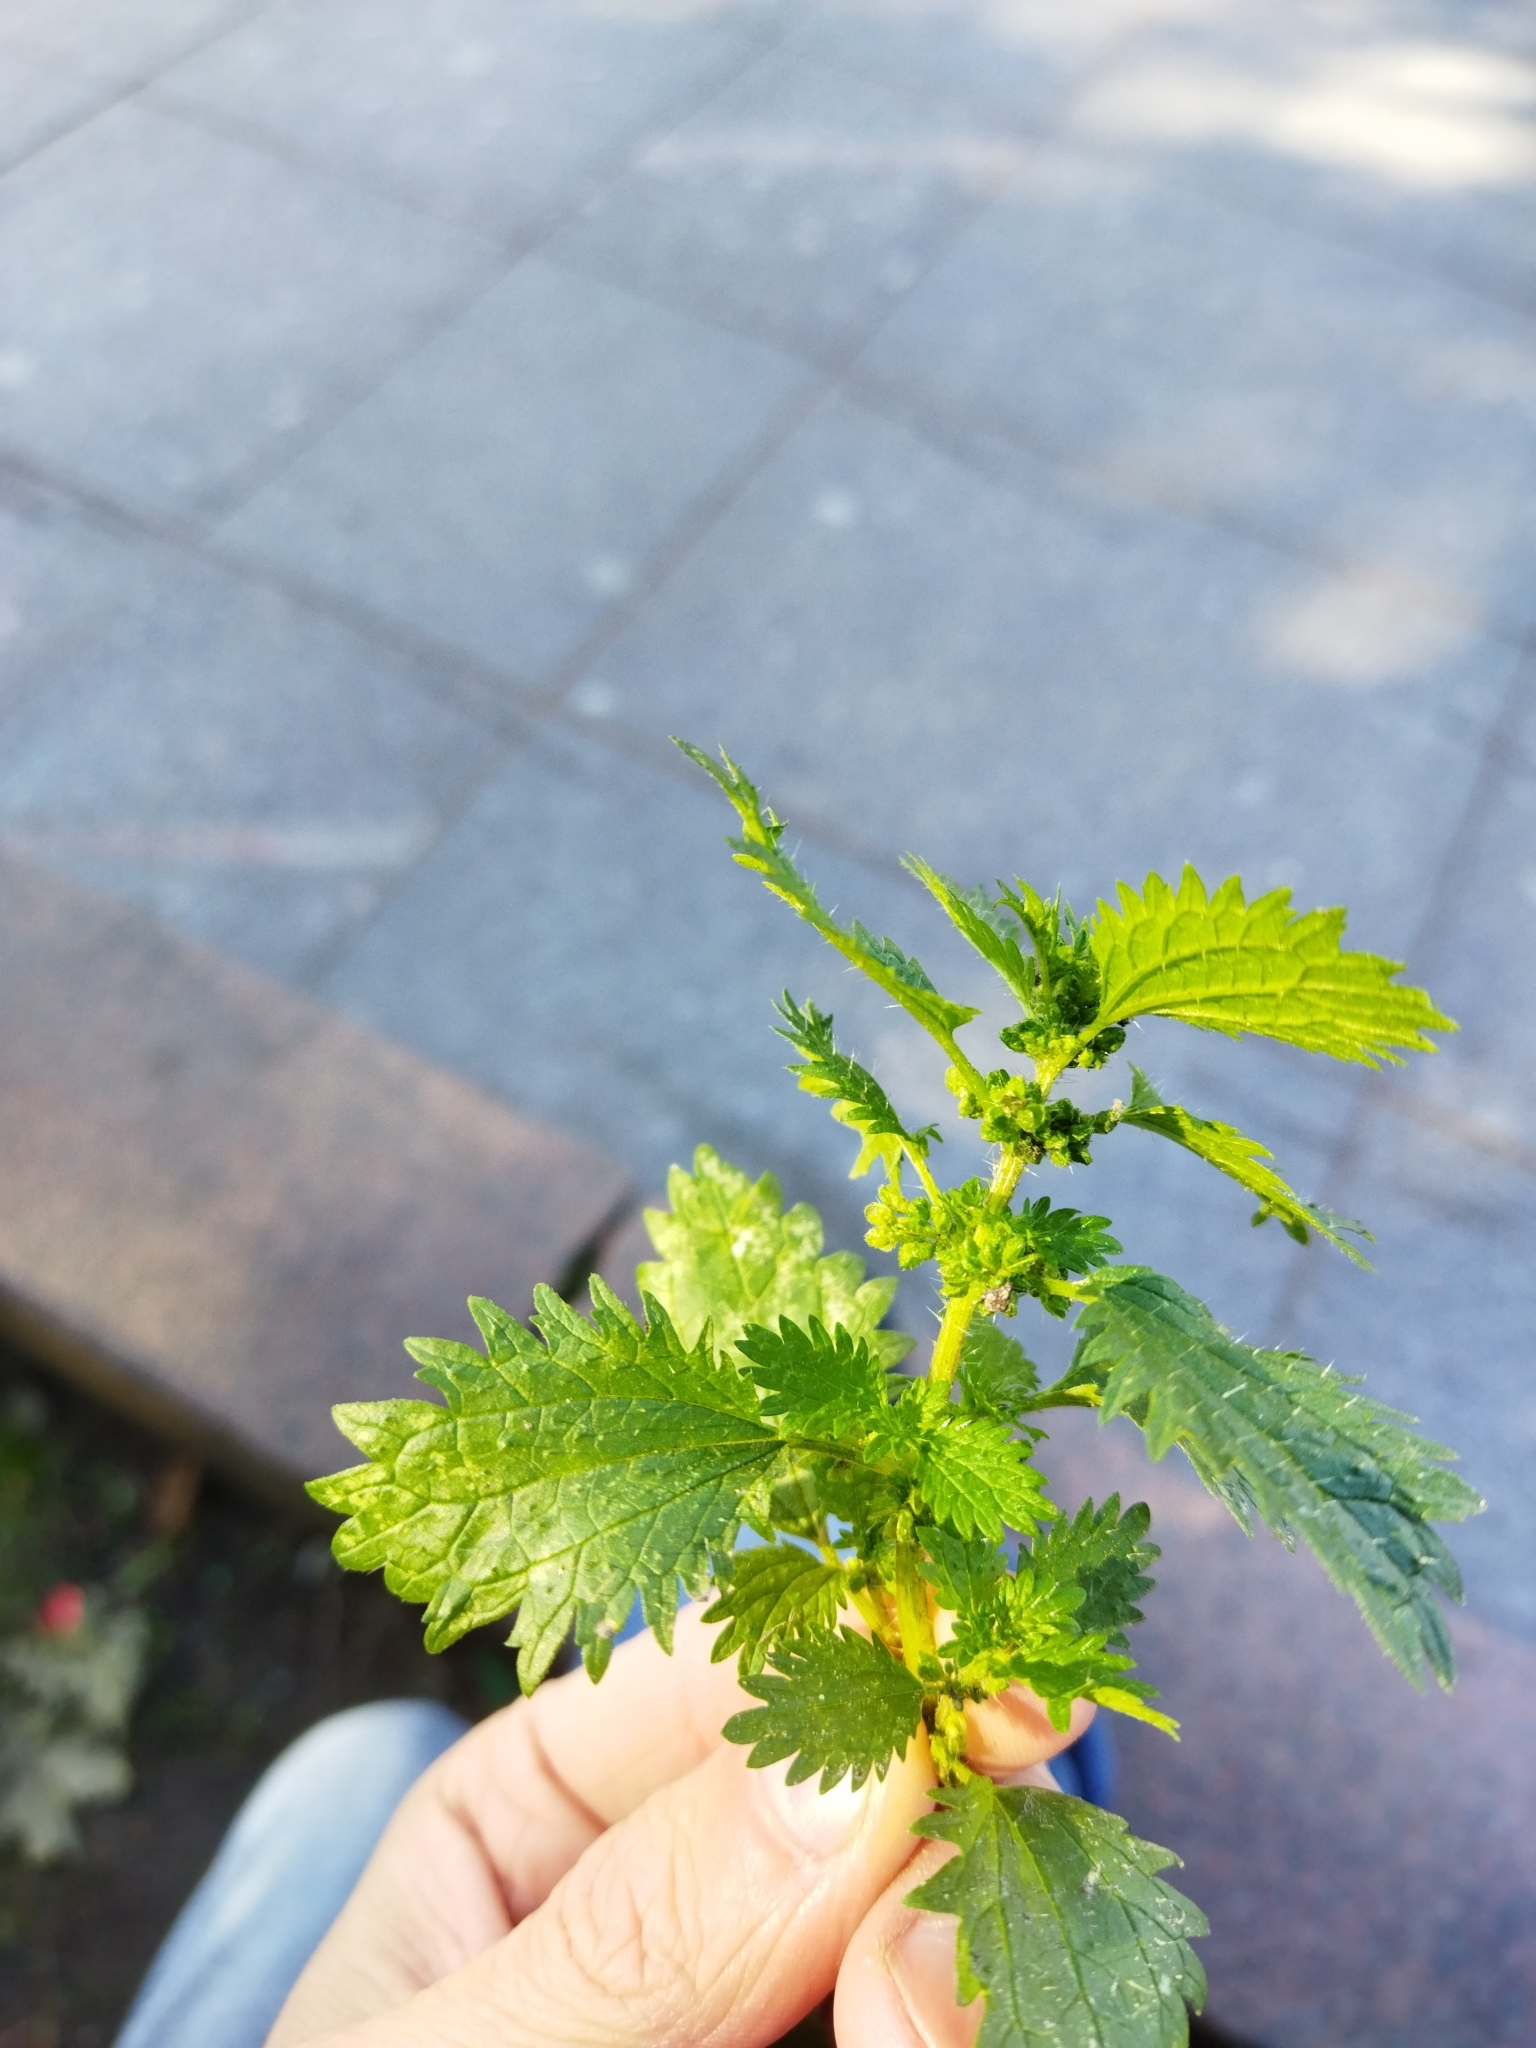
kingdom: Plantae
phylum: Tracheophyta
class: Magnoliopsida
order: Rosales
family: Urticaceae
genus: Urtica
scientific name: Urtica urens
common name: Dwarf nettle
